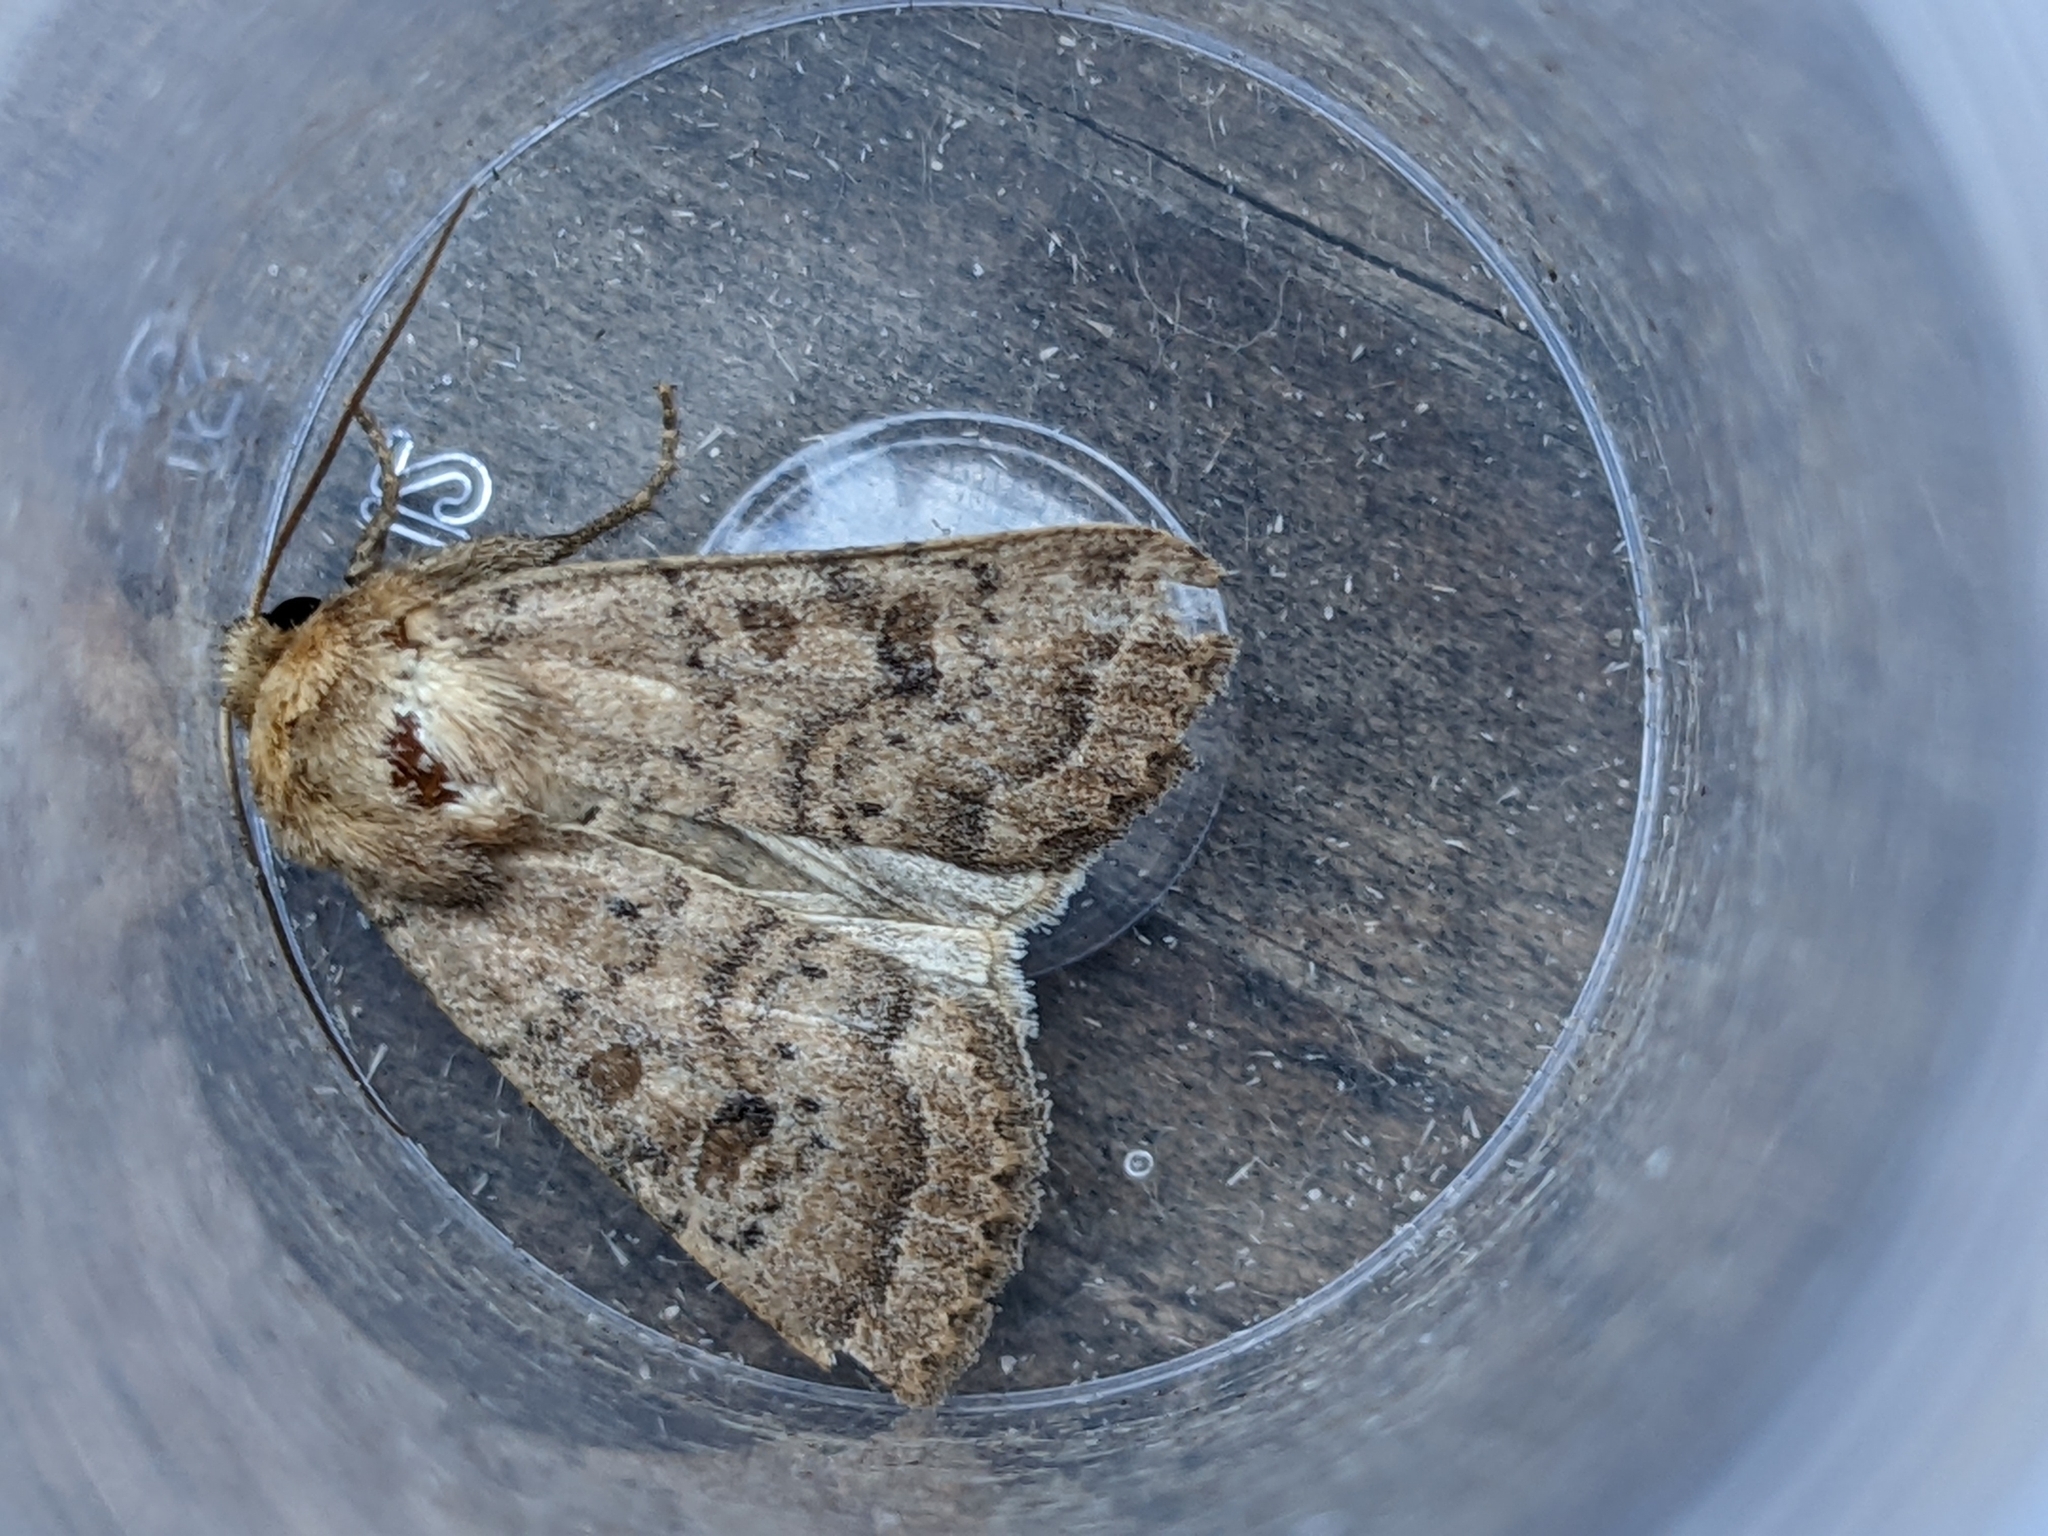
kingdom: Animalia
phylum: Arthropoda
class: Insecta
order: Lepidoptera
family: Noctuidae
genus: Hoplodrina
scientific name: Hoplodrina octogenaria
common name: Uncertain
